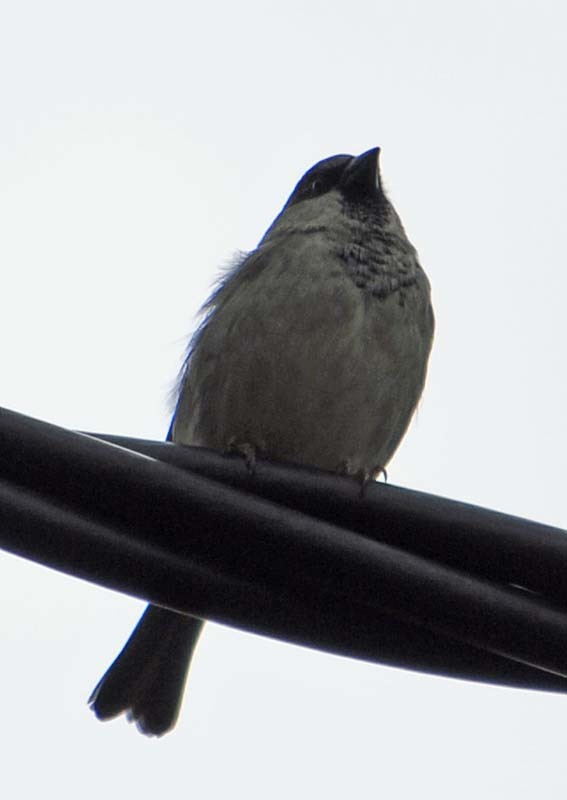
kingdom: Animalia
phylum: Chordata
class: Aves
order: Passeriformes
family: Passeridae
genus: Passer
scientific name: Passer domesticus
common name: House sparrow
